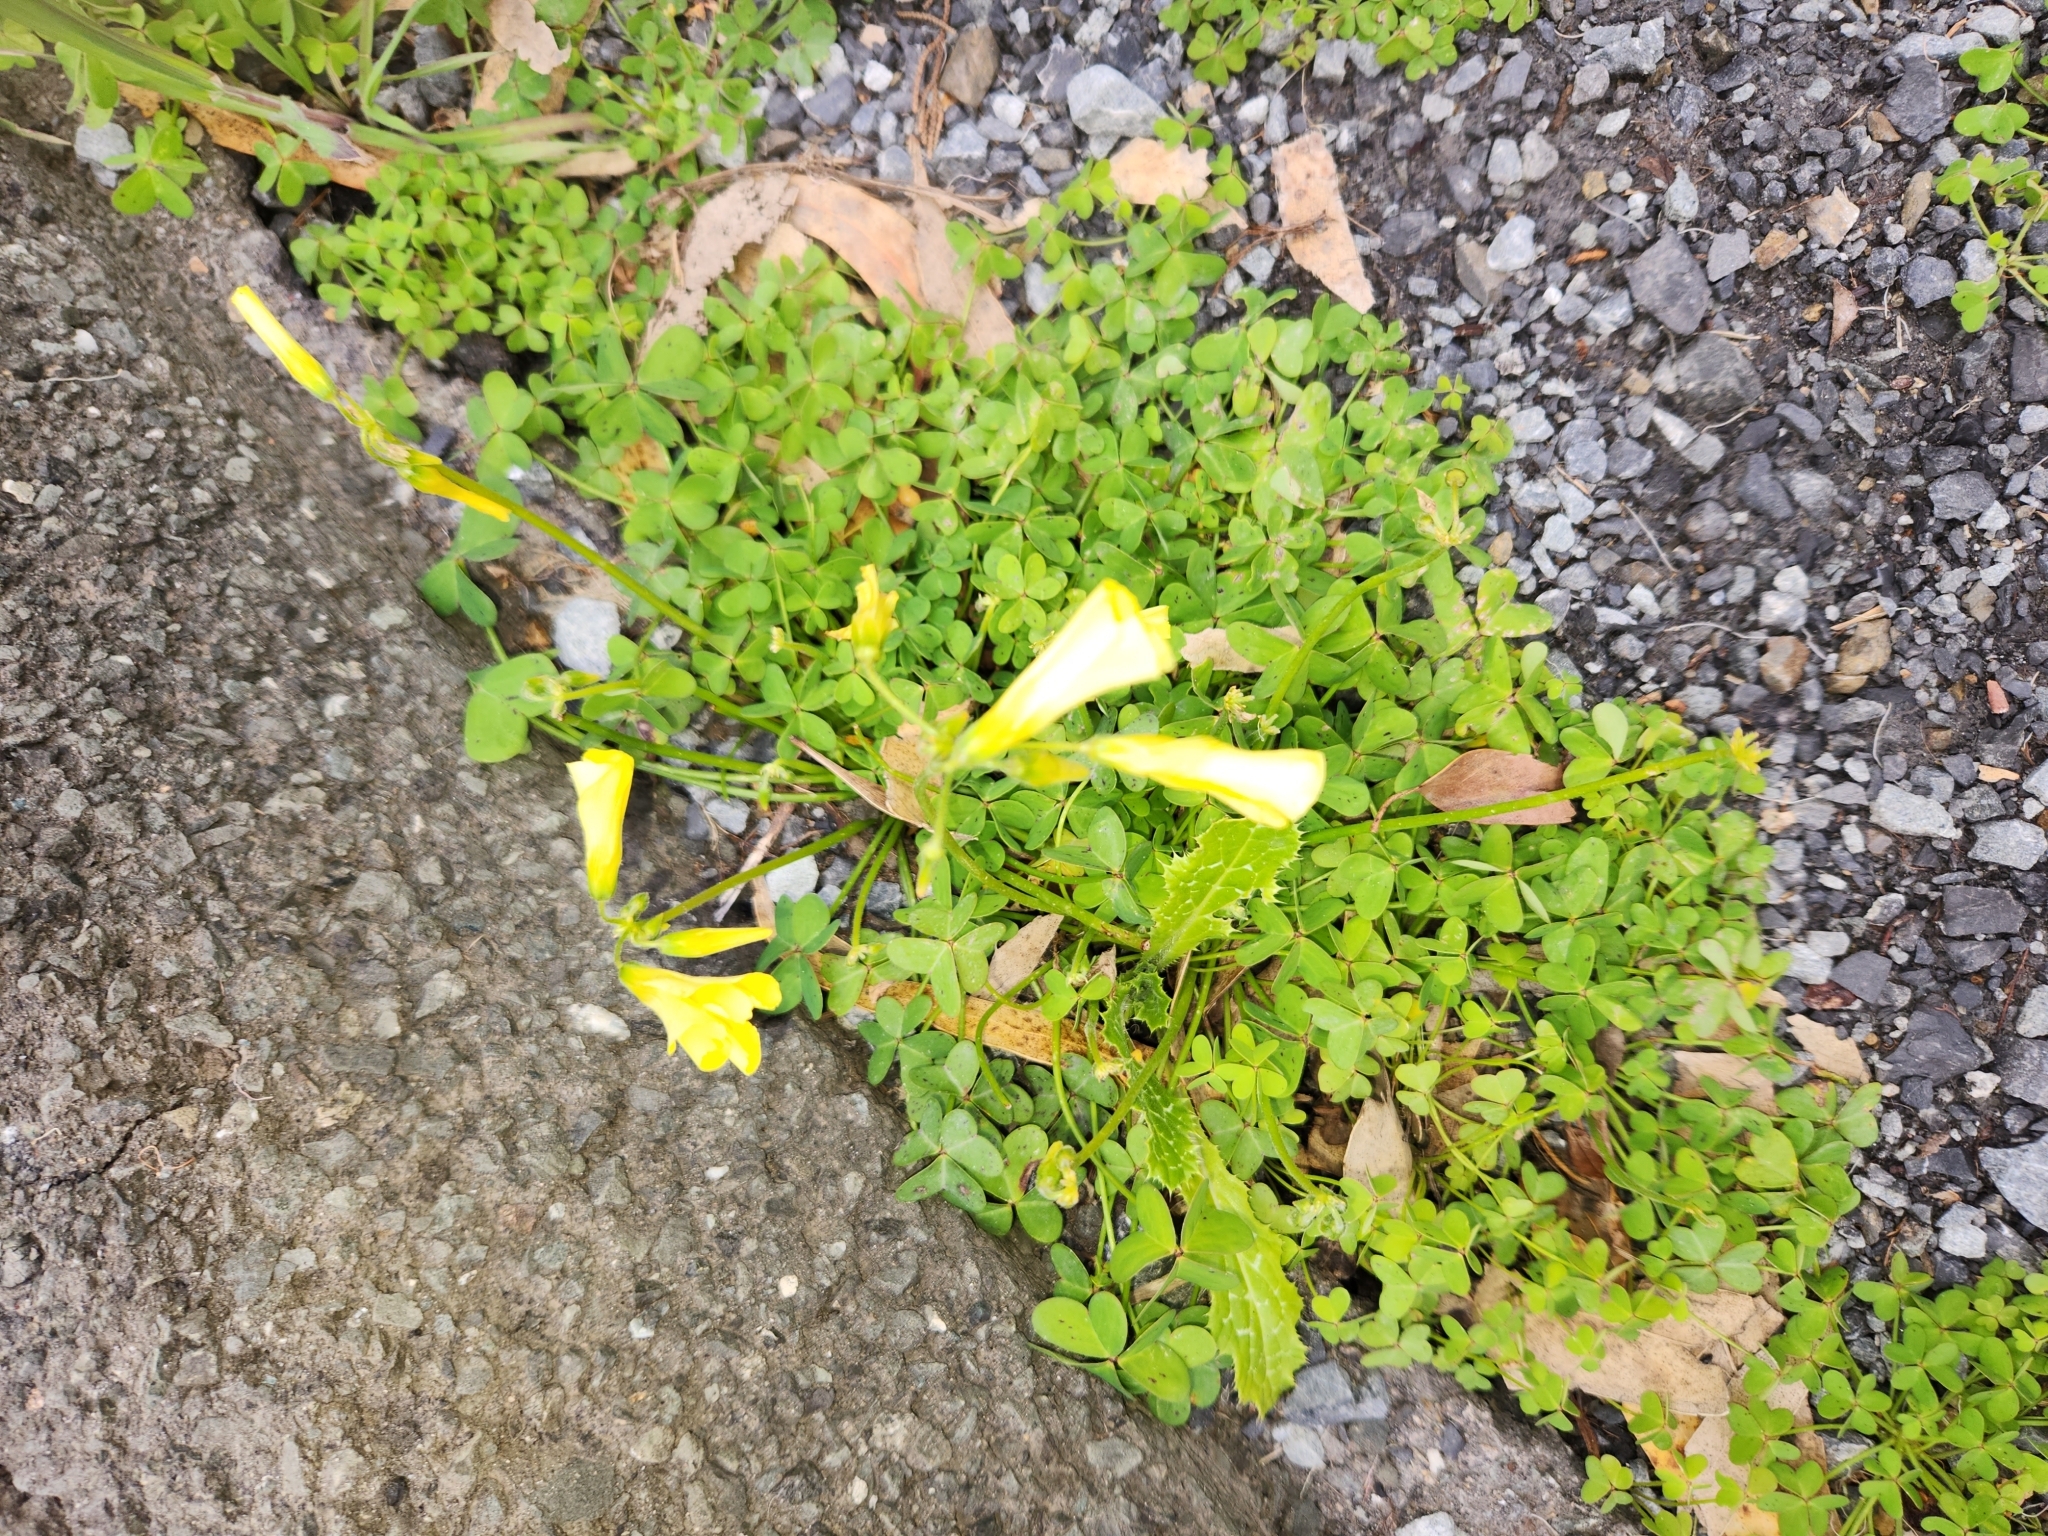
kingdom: Plantae
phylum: Tracheophyta
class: Magnoliopsida
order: Oxalidales
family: Oxalidaceae
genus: Oxalis
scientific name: Oxalis pes-caprae
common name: Bermuda-buttercup
